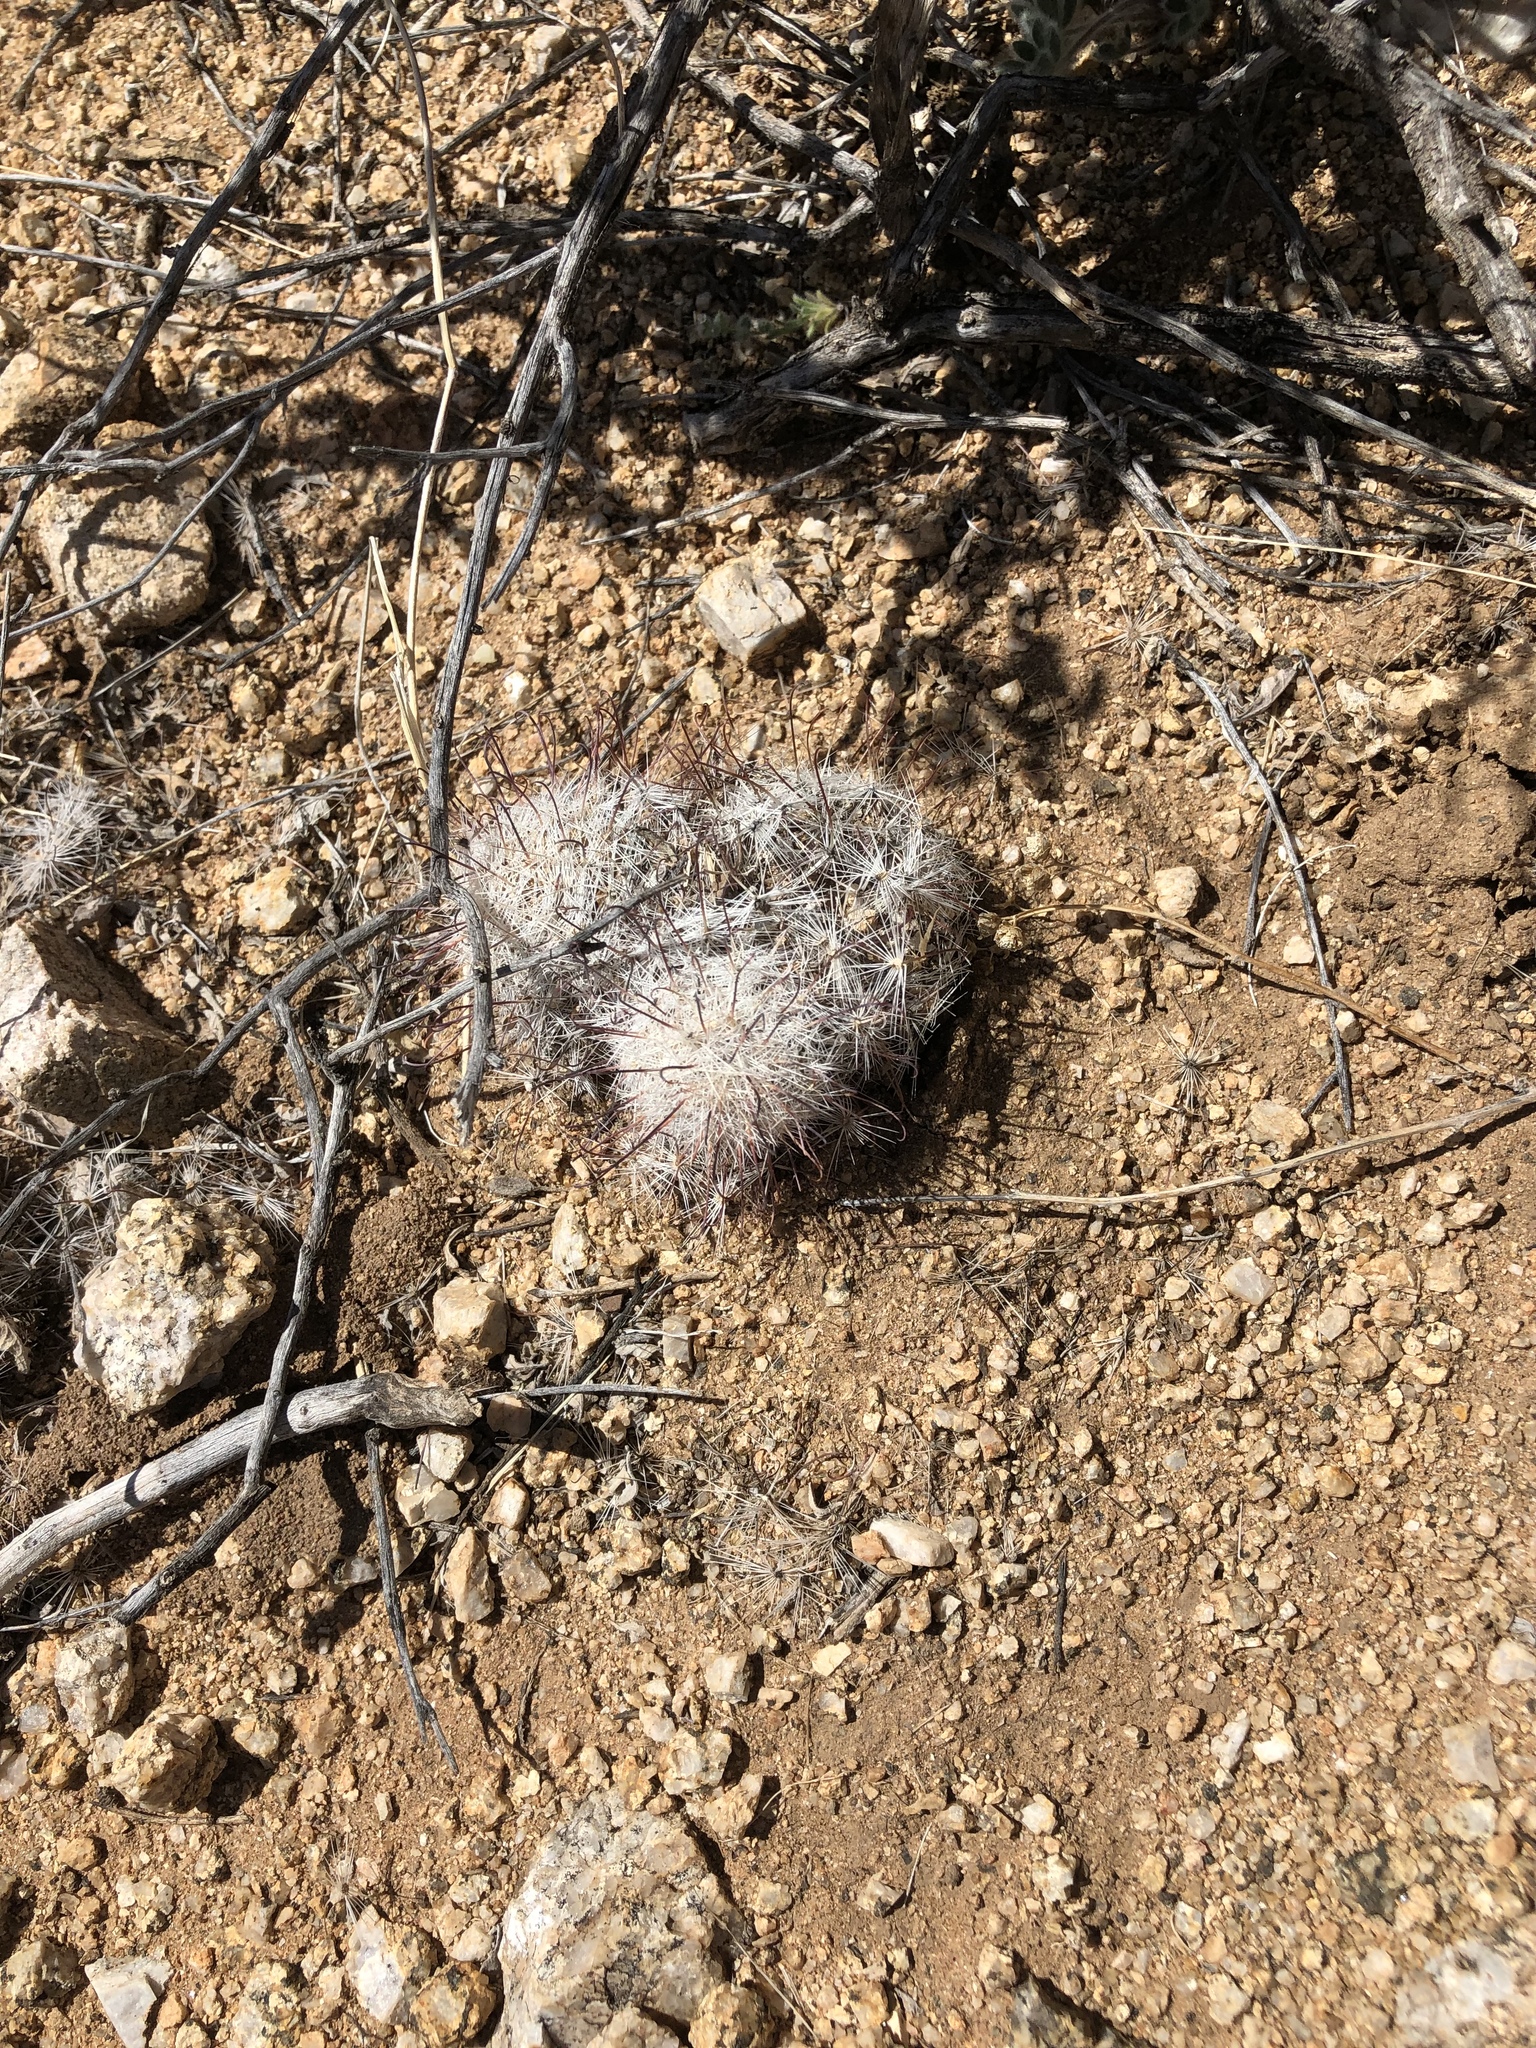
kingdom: Plantae
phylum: Tracheophyta
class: Magnoliopsida
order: Caryophyllales
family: Cactaceae
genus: Cochemiea
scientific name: Cochemiea grahamii
